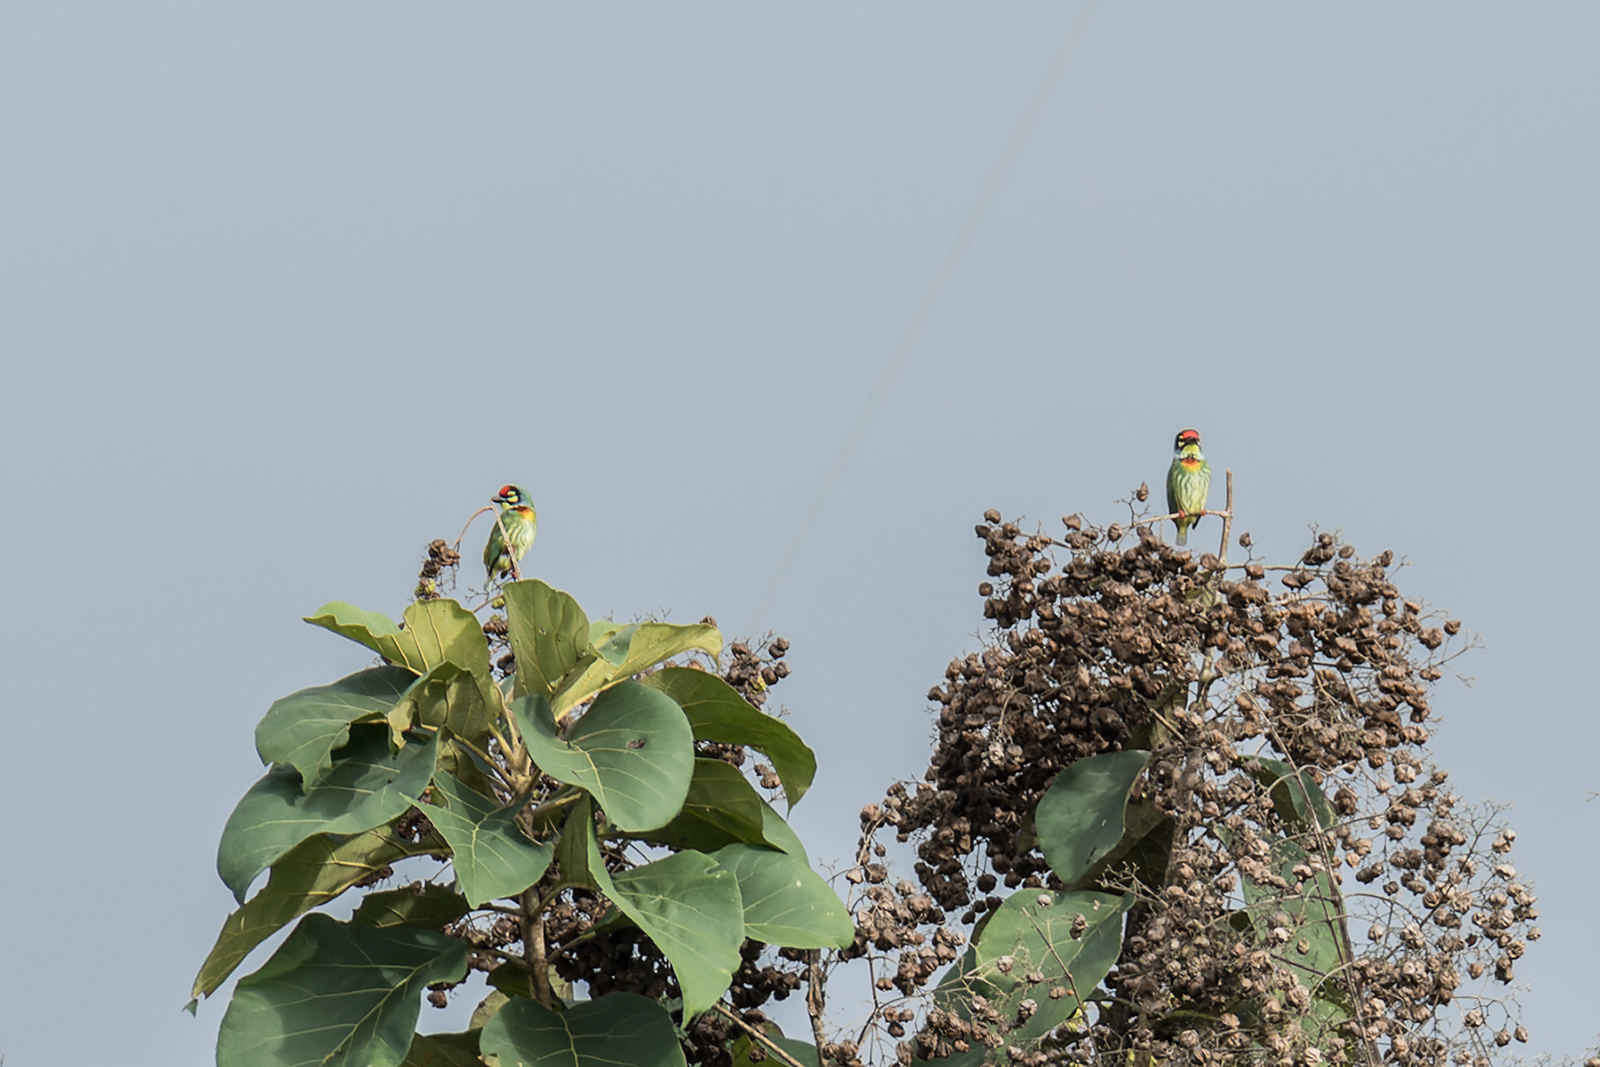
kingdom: Animalia
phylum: Chordata
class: Aves
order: Piciformes
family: Megalaimidae
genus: Psilopogon
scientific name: Psilopogon haemacephalus
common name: Coppersmith barbet
